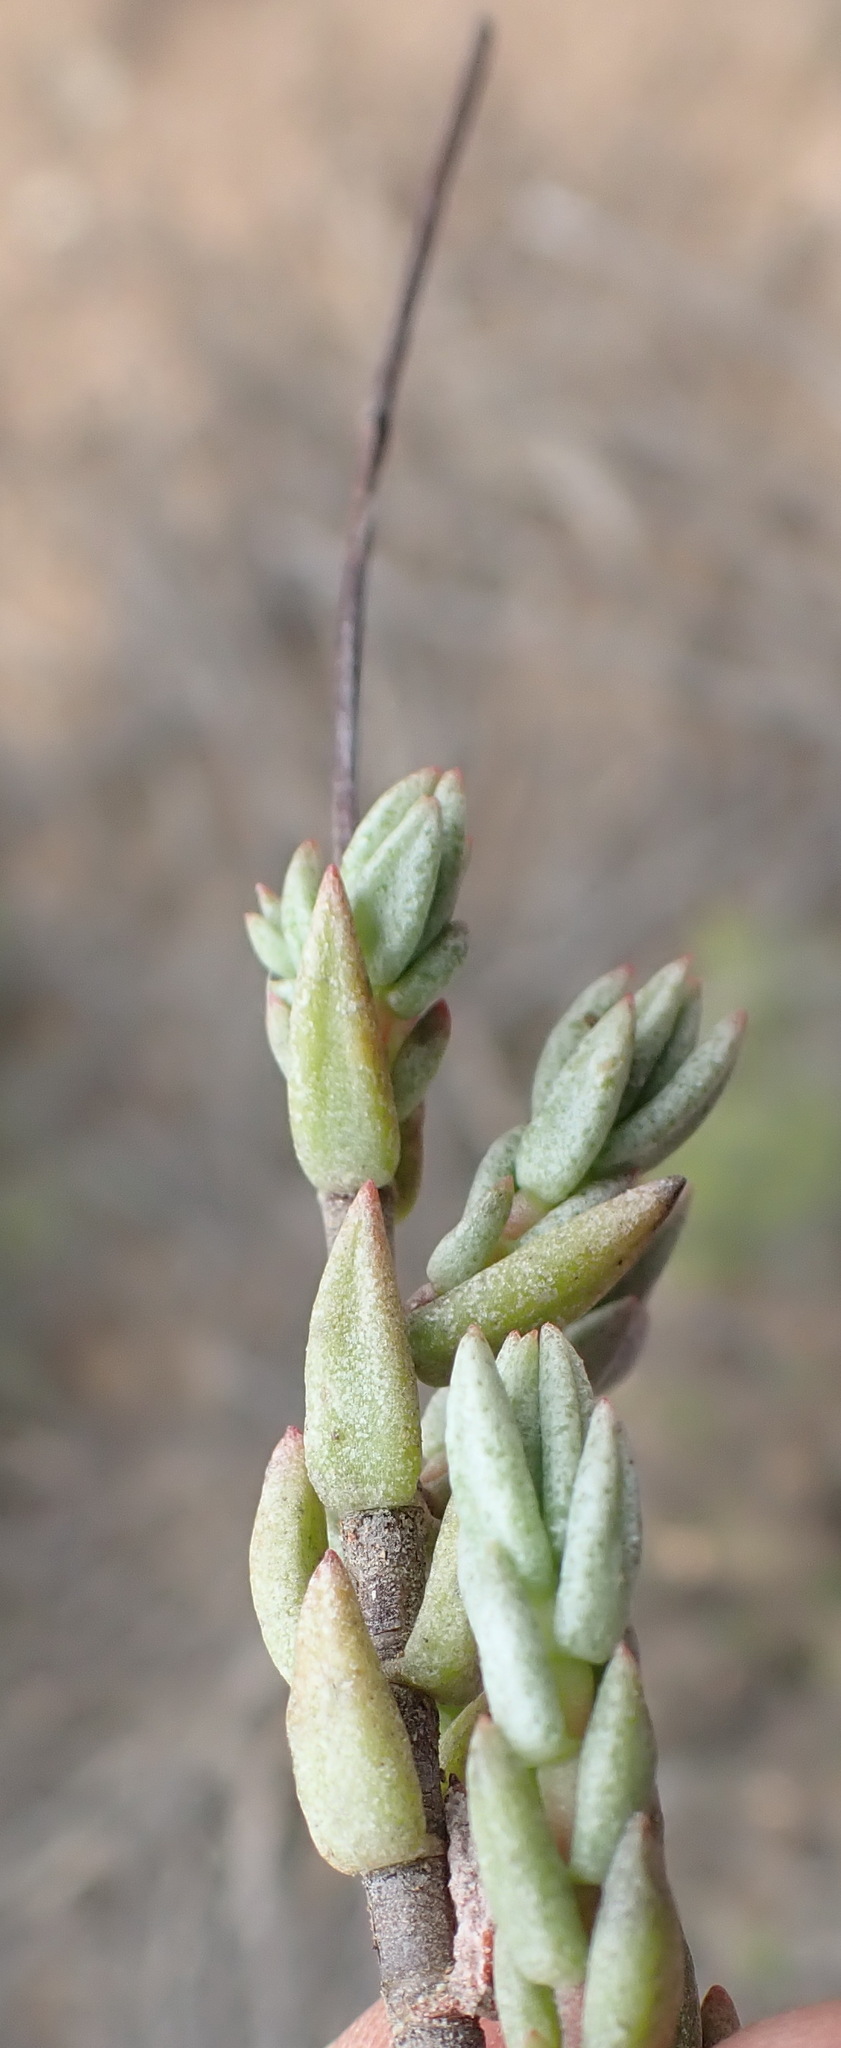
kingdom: Plantae
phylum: Tracheophyta
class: Magnoliopsida
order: Saxifragales
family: Crassulaceae
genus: Crassula
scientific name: Crassula biplanata
